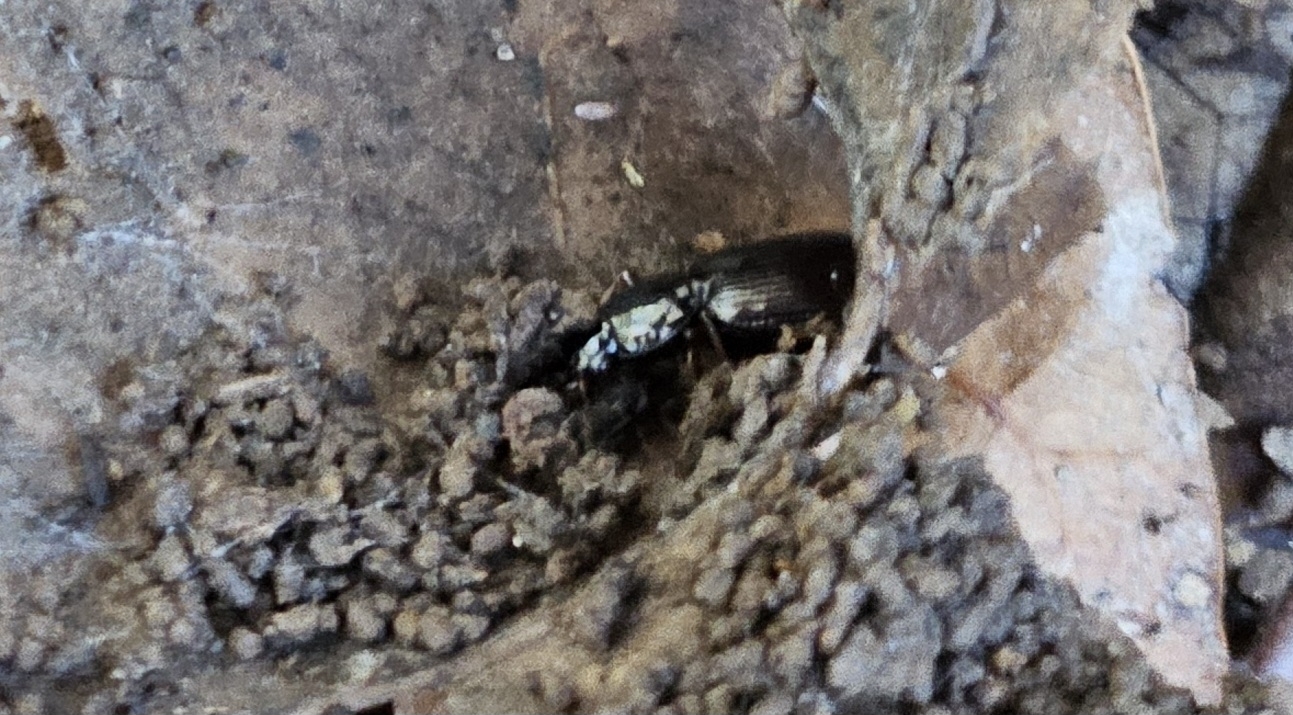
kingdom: Animalia
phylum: Arthropoda
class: Insecta
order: Coleoptera
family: Carabidae
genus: Agonum
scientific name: Agonum punctiforme
